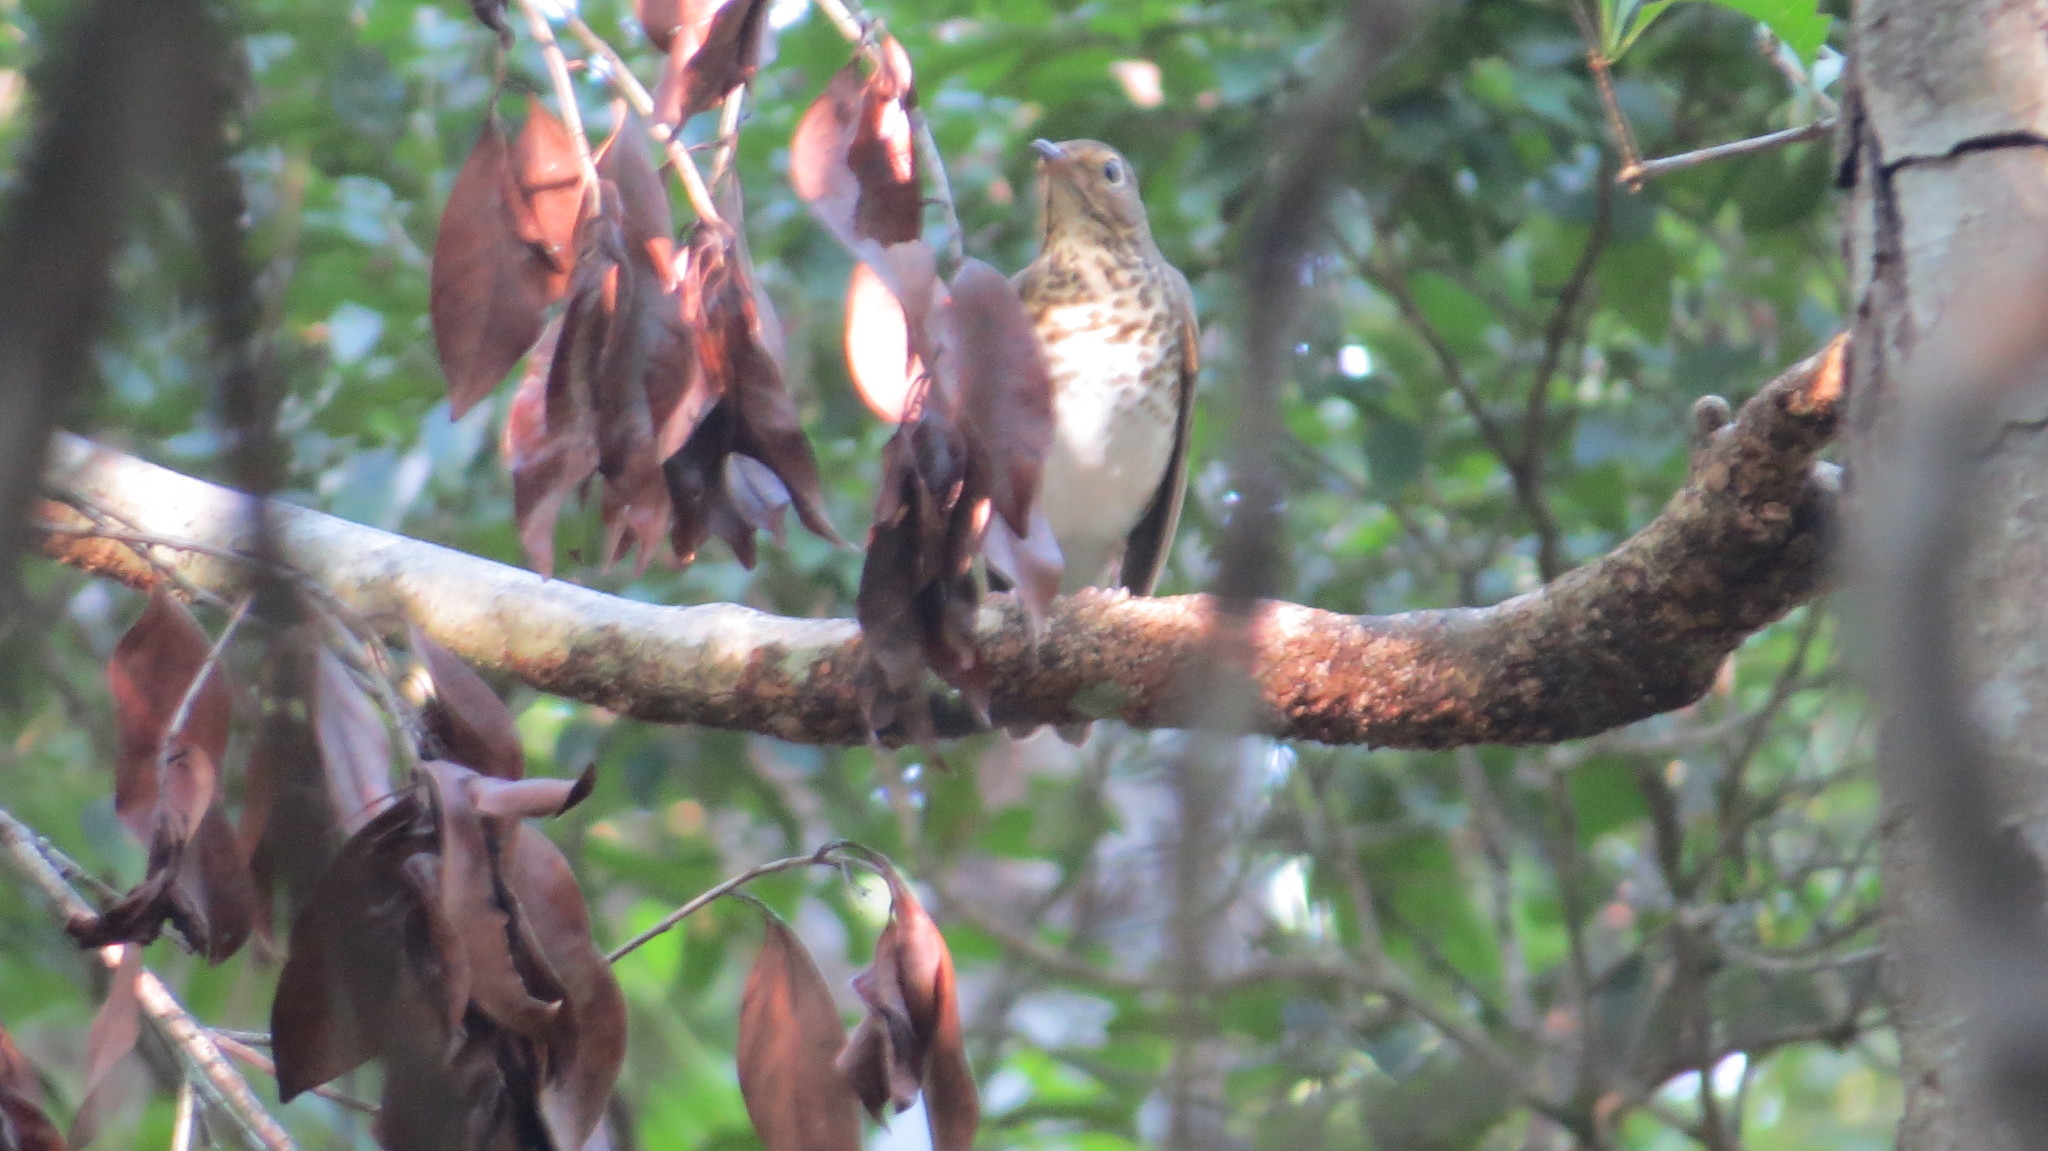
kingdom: Animalia
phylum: Chordata
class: Aves
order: Passeriformes
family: Turdidae
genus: Catharus
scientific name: Catharus ustulatus
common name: Swainson's thrush
